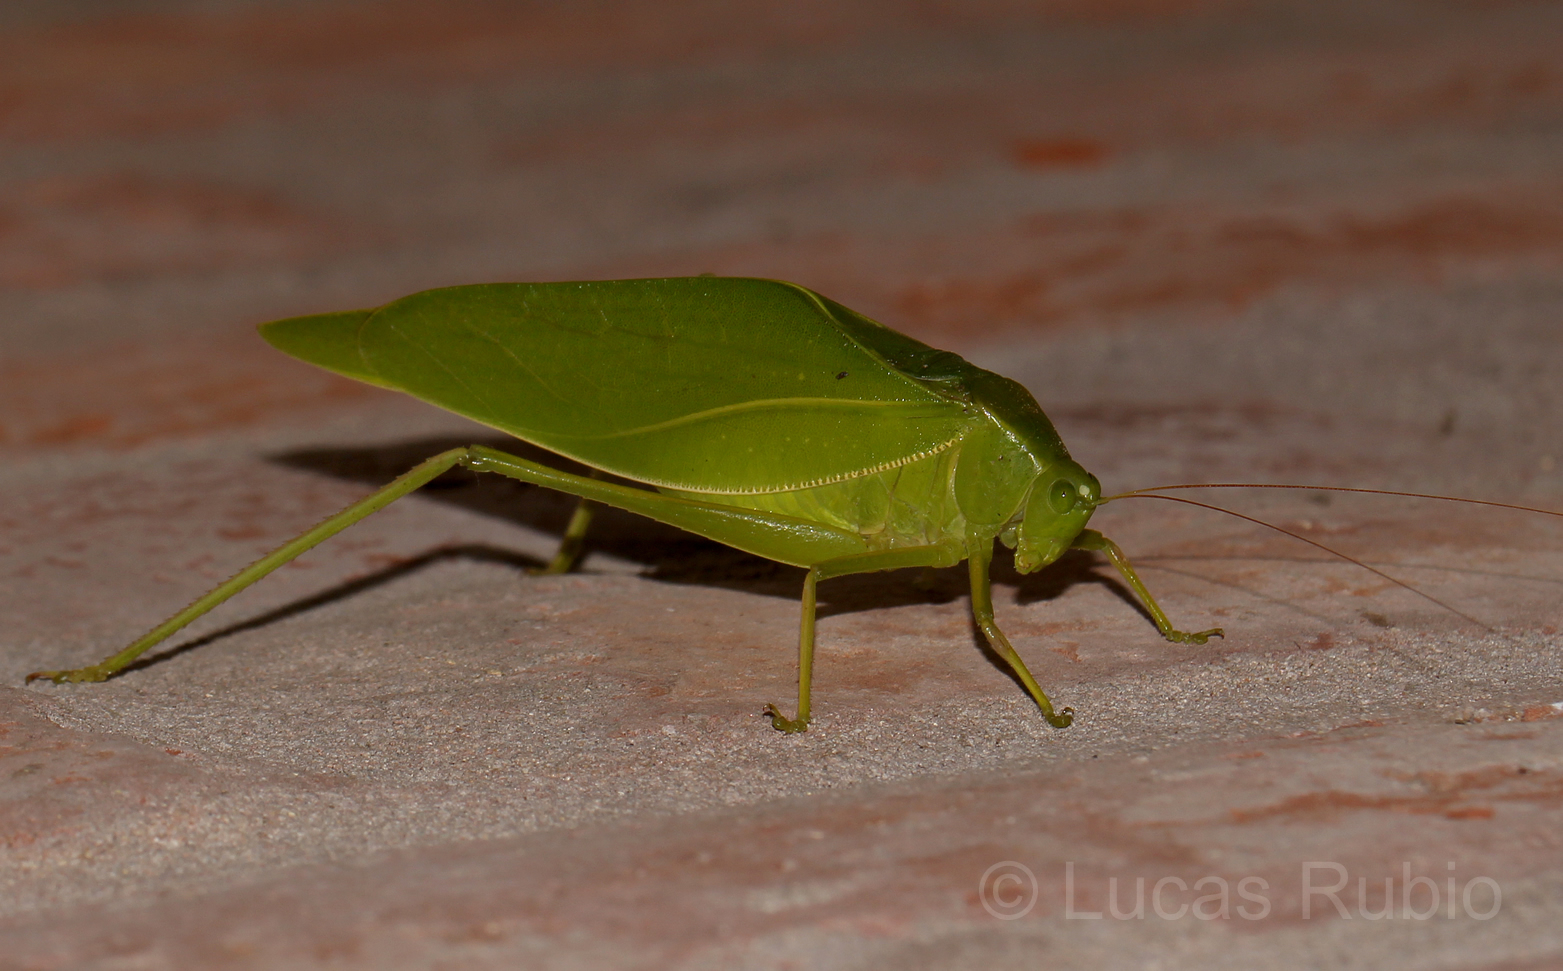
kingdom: Animalia
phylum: Arthropoda
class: Insecta
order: Orthoptera
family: Tettigoniidae
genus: Microcentrum
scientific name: Microcentrum marginatum
